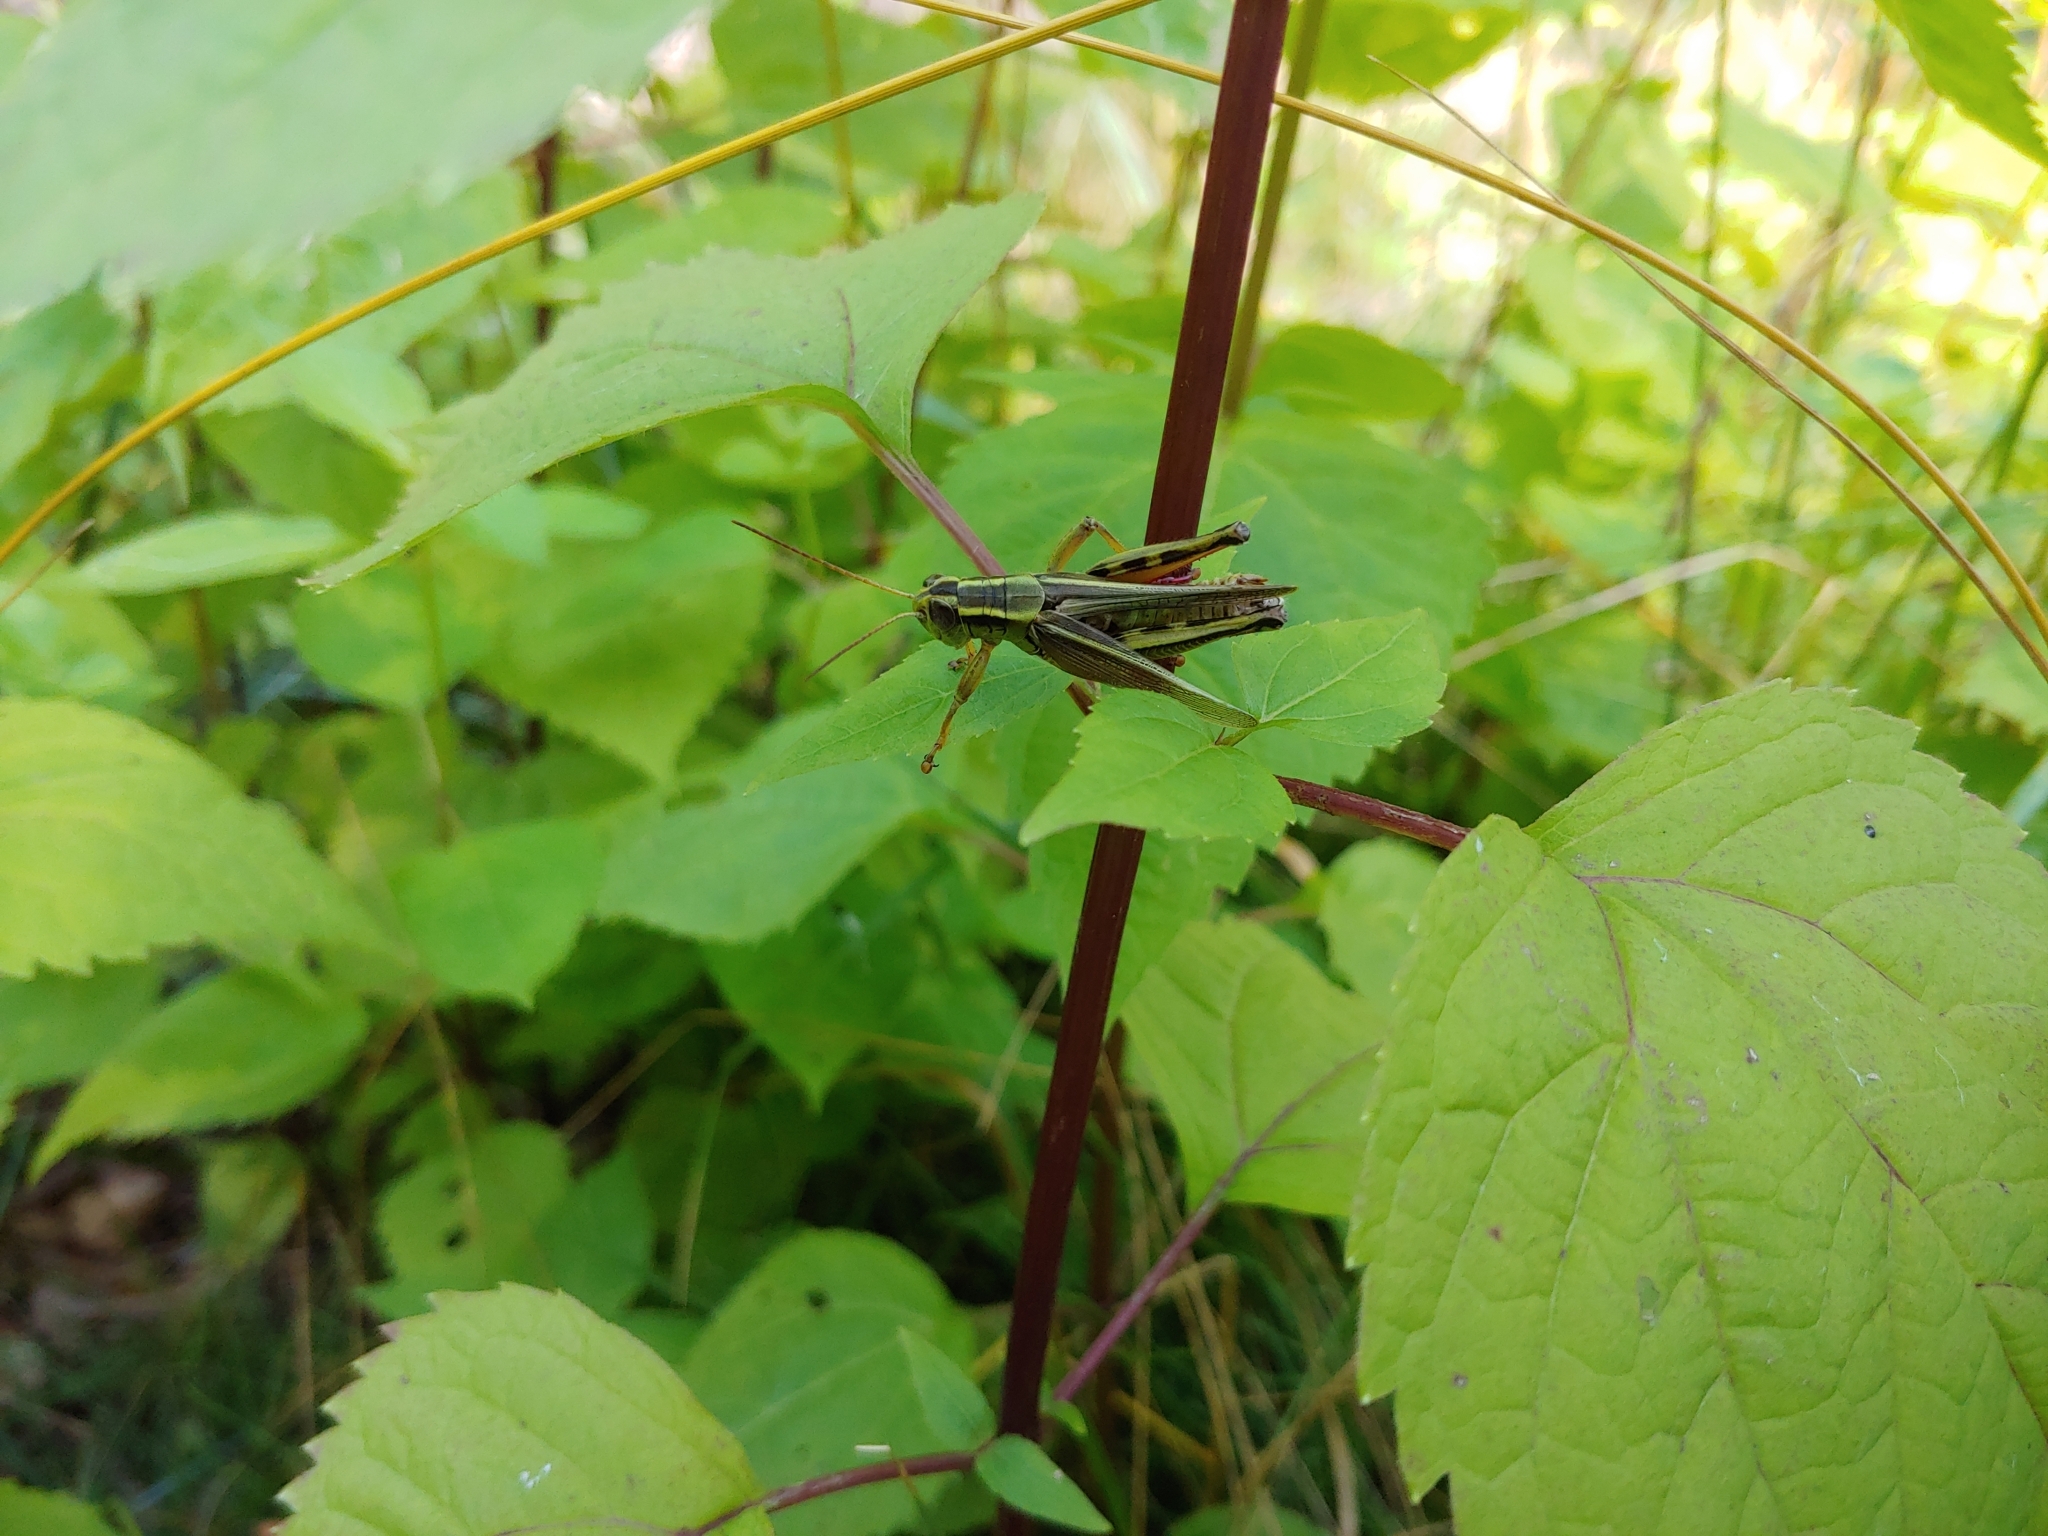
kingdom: Animalia
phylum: Arthropoda
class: Insecta
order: Orthoptera
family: Acrididae
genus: Melanoplus
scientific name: Melanoplus bivittatus
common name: Two-striped grasshopper
